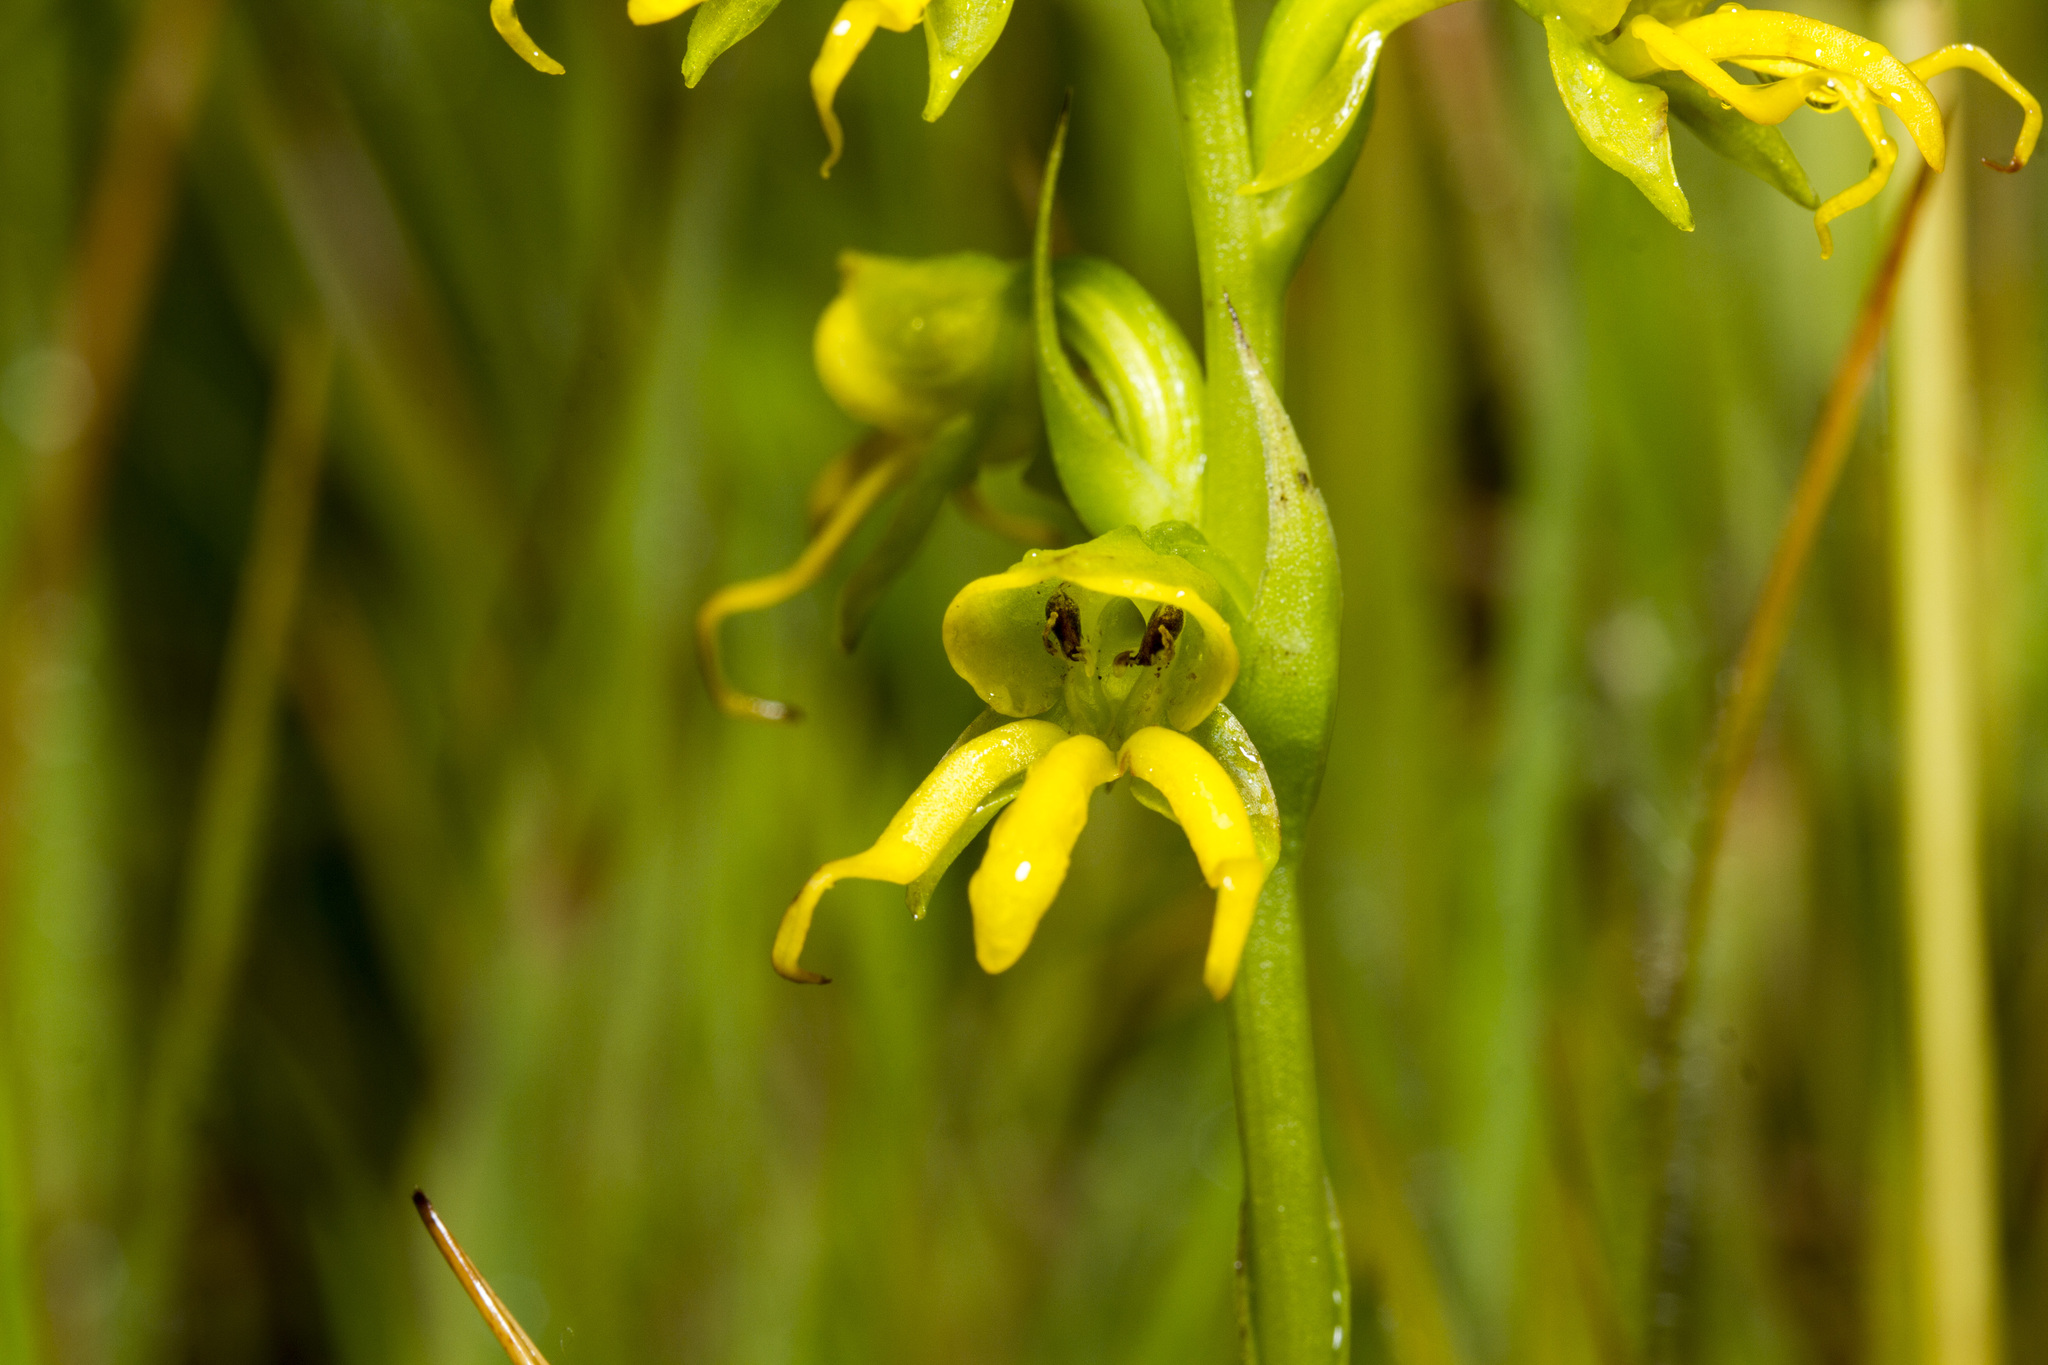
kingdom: Plantae
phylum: Tracheophyta
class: Liliopsida
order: Asparagales
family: Orchidaceae
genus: Habenaria
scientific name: Habenaria marginata
